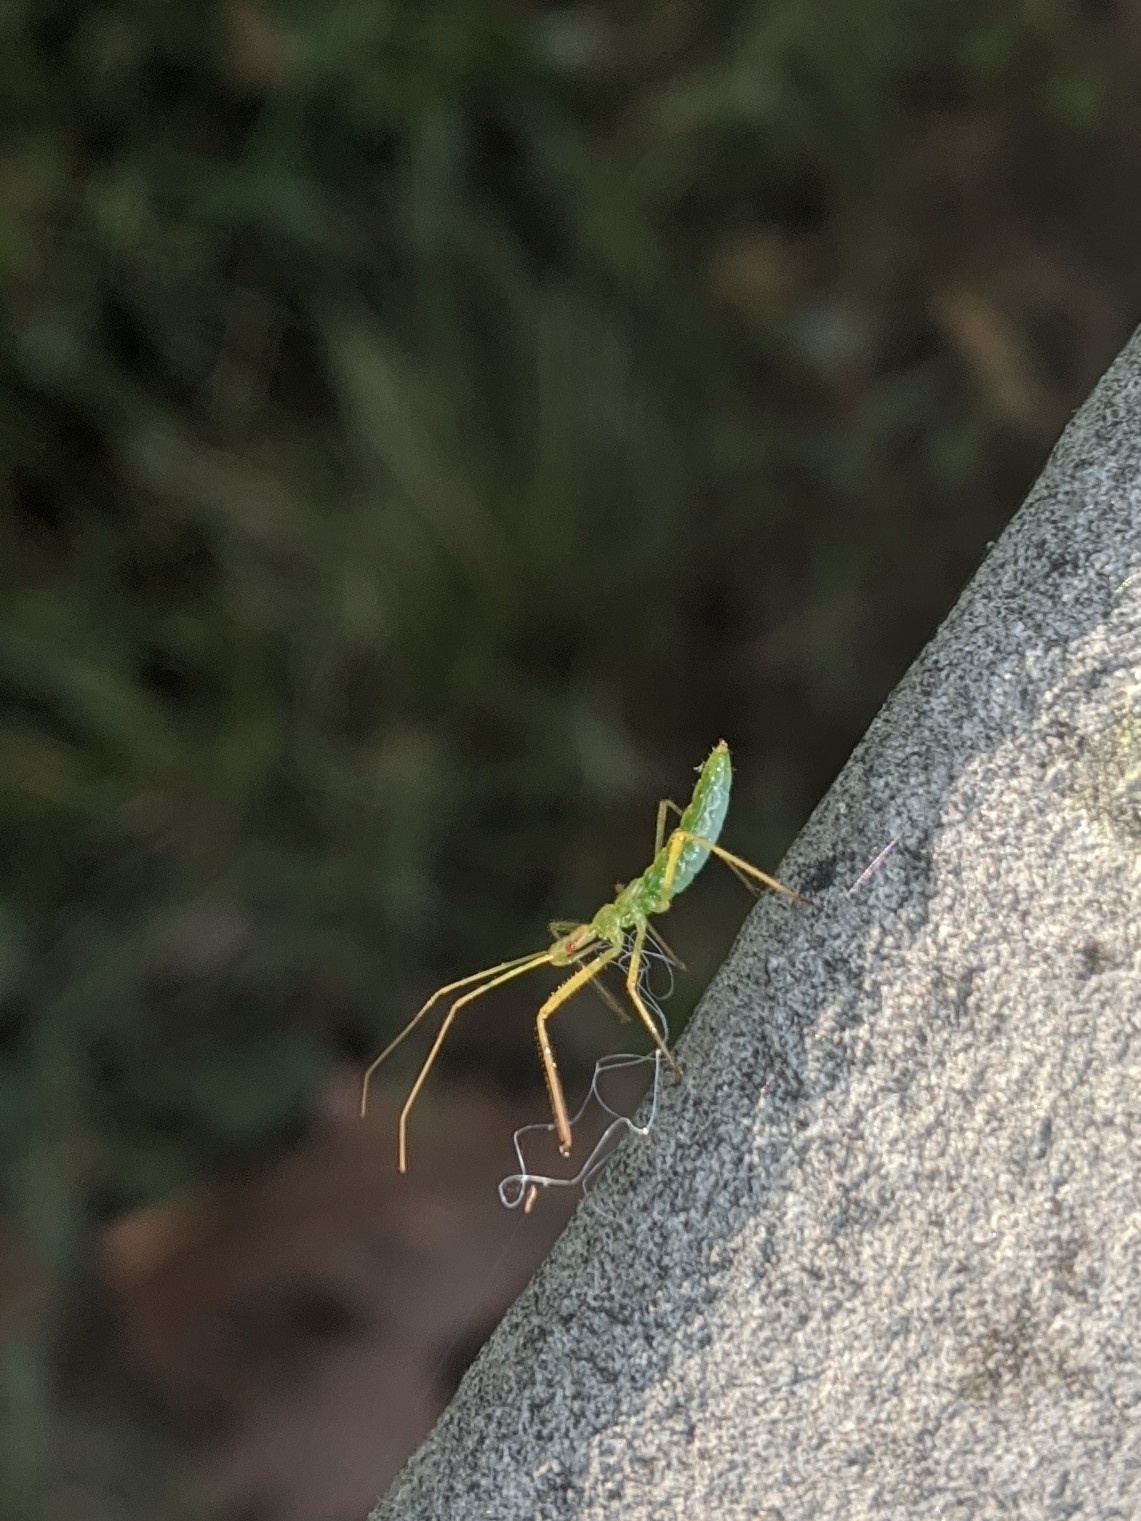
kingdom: Animalia
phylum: Arthropoda
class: Insecta
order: Hemiptera
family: Reduviidae
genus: Zelus
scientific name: Zelus luridus
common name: Pale green assassin bug
